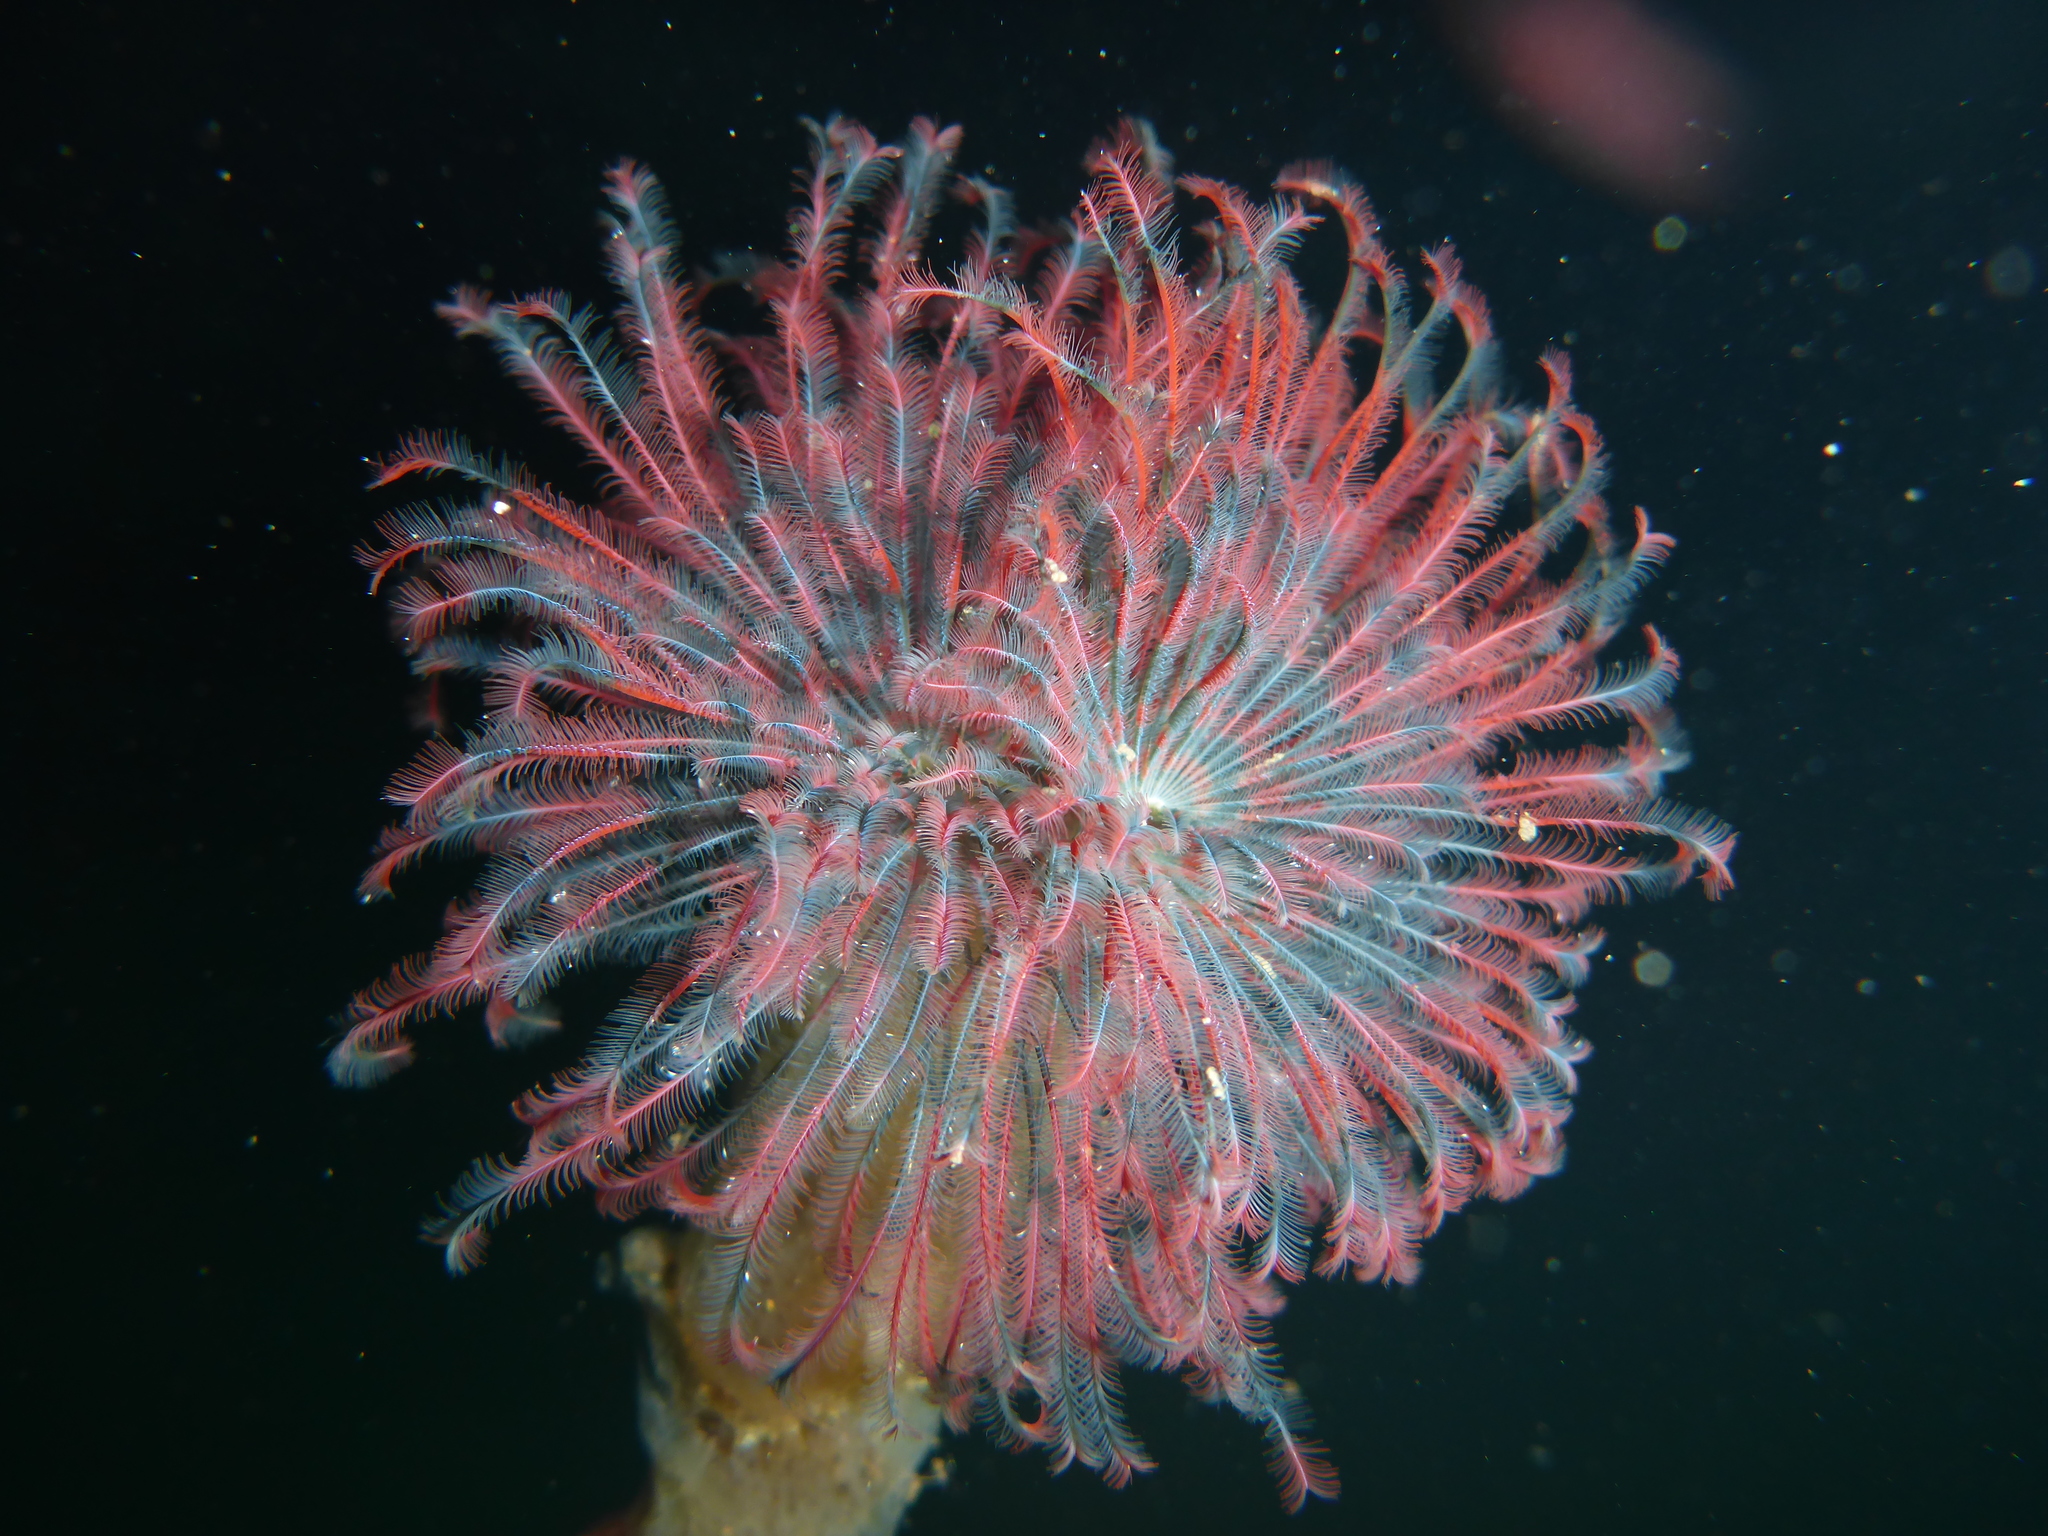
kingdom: Animalia
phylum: Annelida
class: Polychaeta
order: Sabellida
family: Sabellidae
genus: Eudistylia
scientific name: Eudistylia vancouveri
